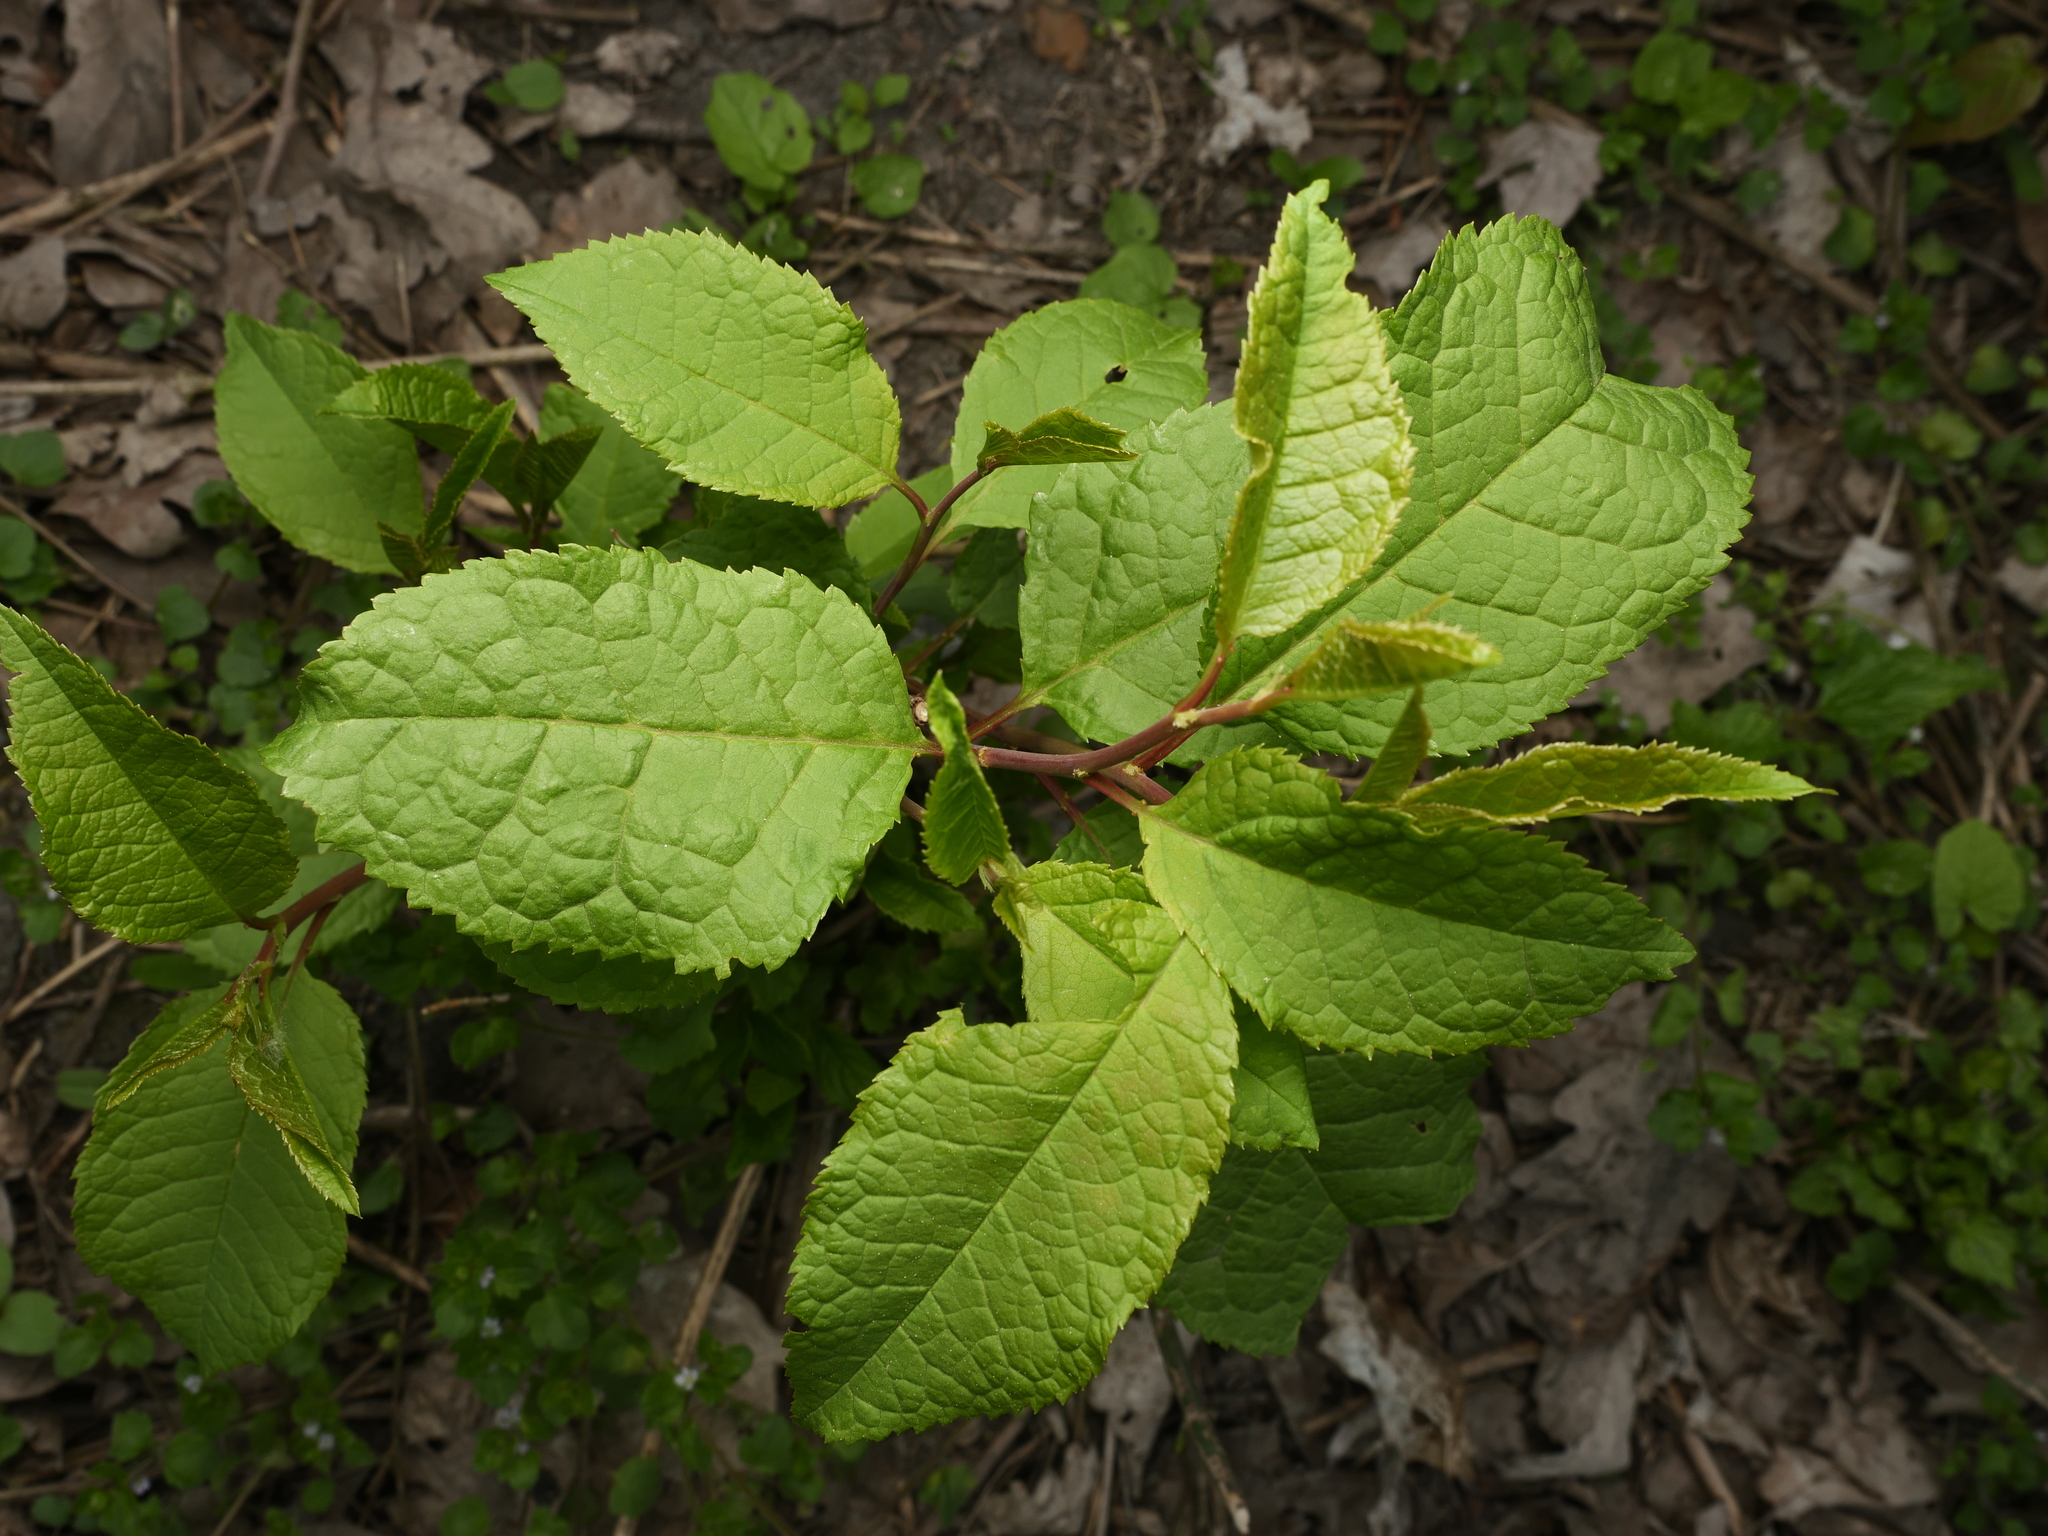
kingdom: Plantae
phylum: Tracheophyta
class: Magnoliopsida
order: Rosales
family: Rosaceae
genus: Prunus
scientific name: Prunus padus
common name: Bird cherry
